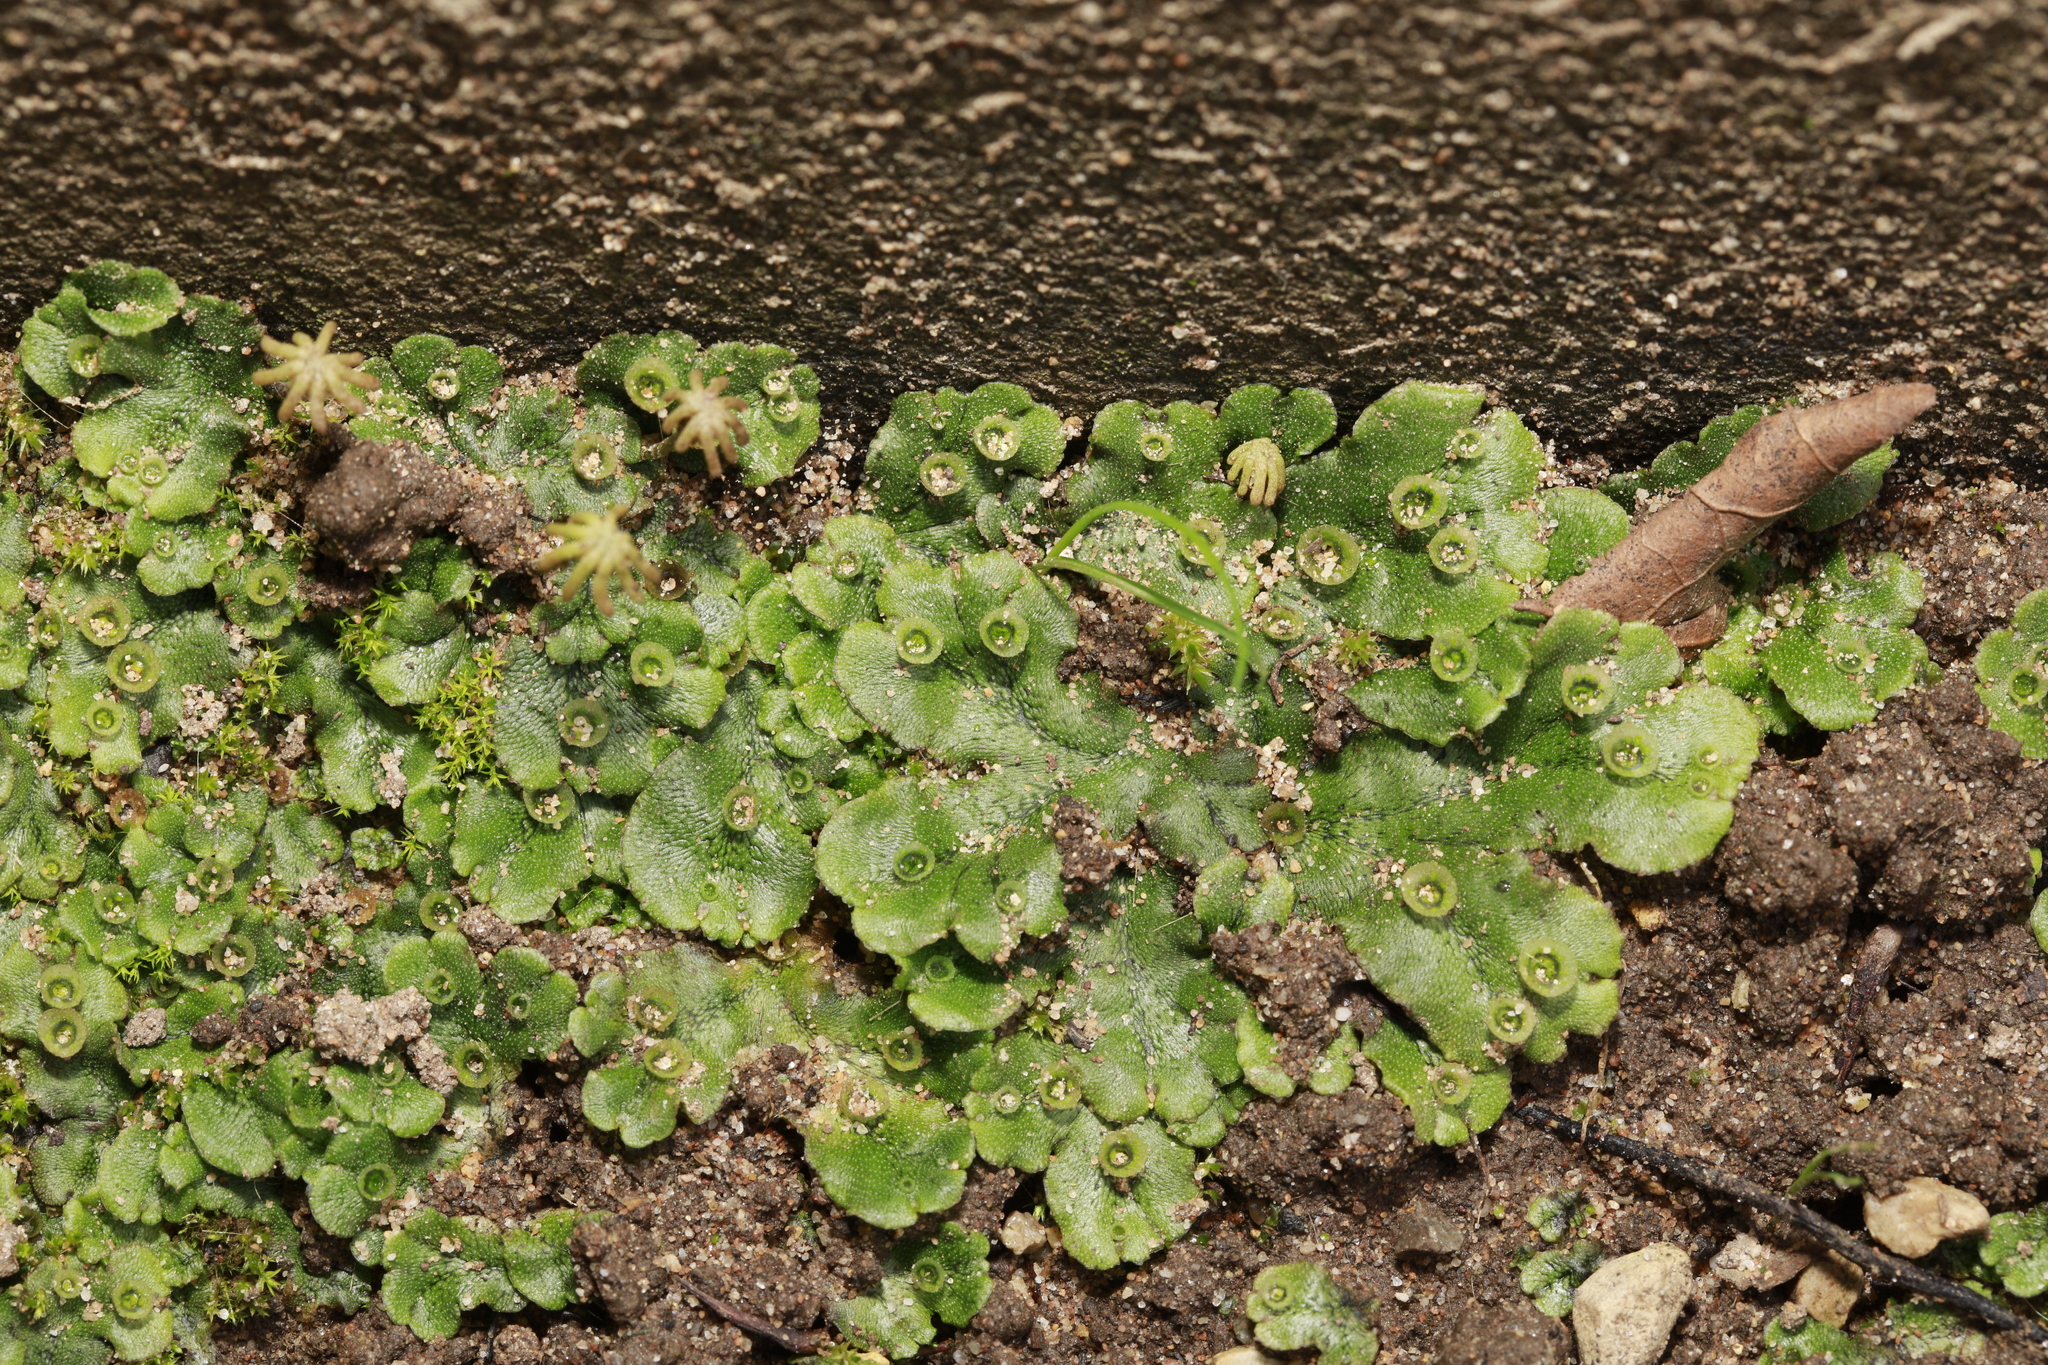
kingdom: Plantae
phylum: Marchantiophyta
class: Marchantiopsida
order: Marchantiales
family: Marchantiaceae
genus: Marchantia
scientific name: Marchantia polymorpha
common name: Common liverwort
